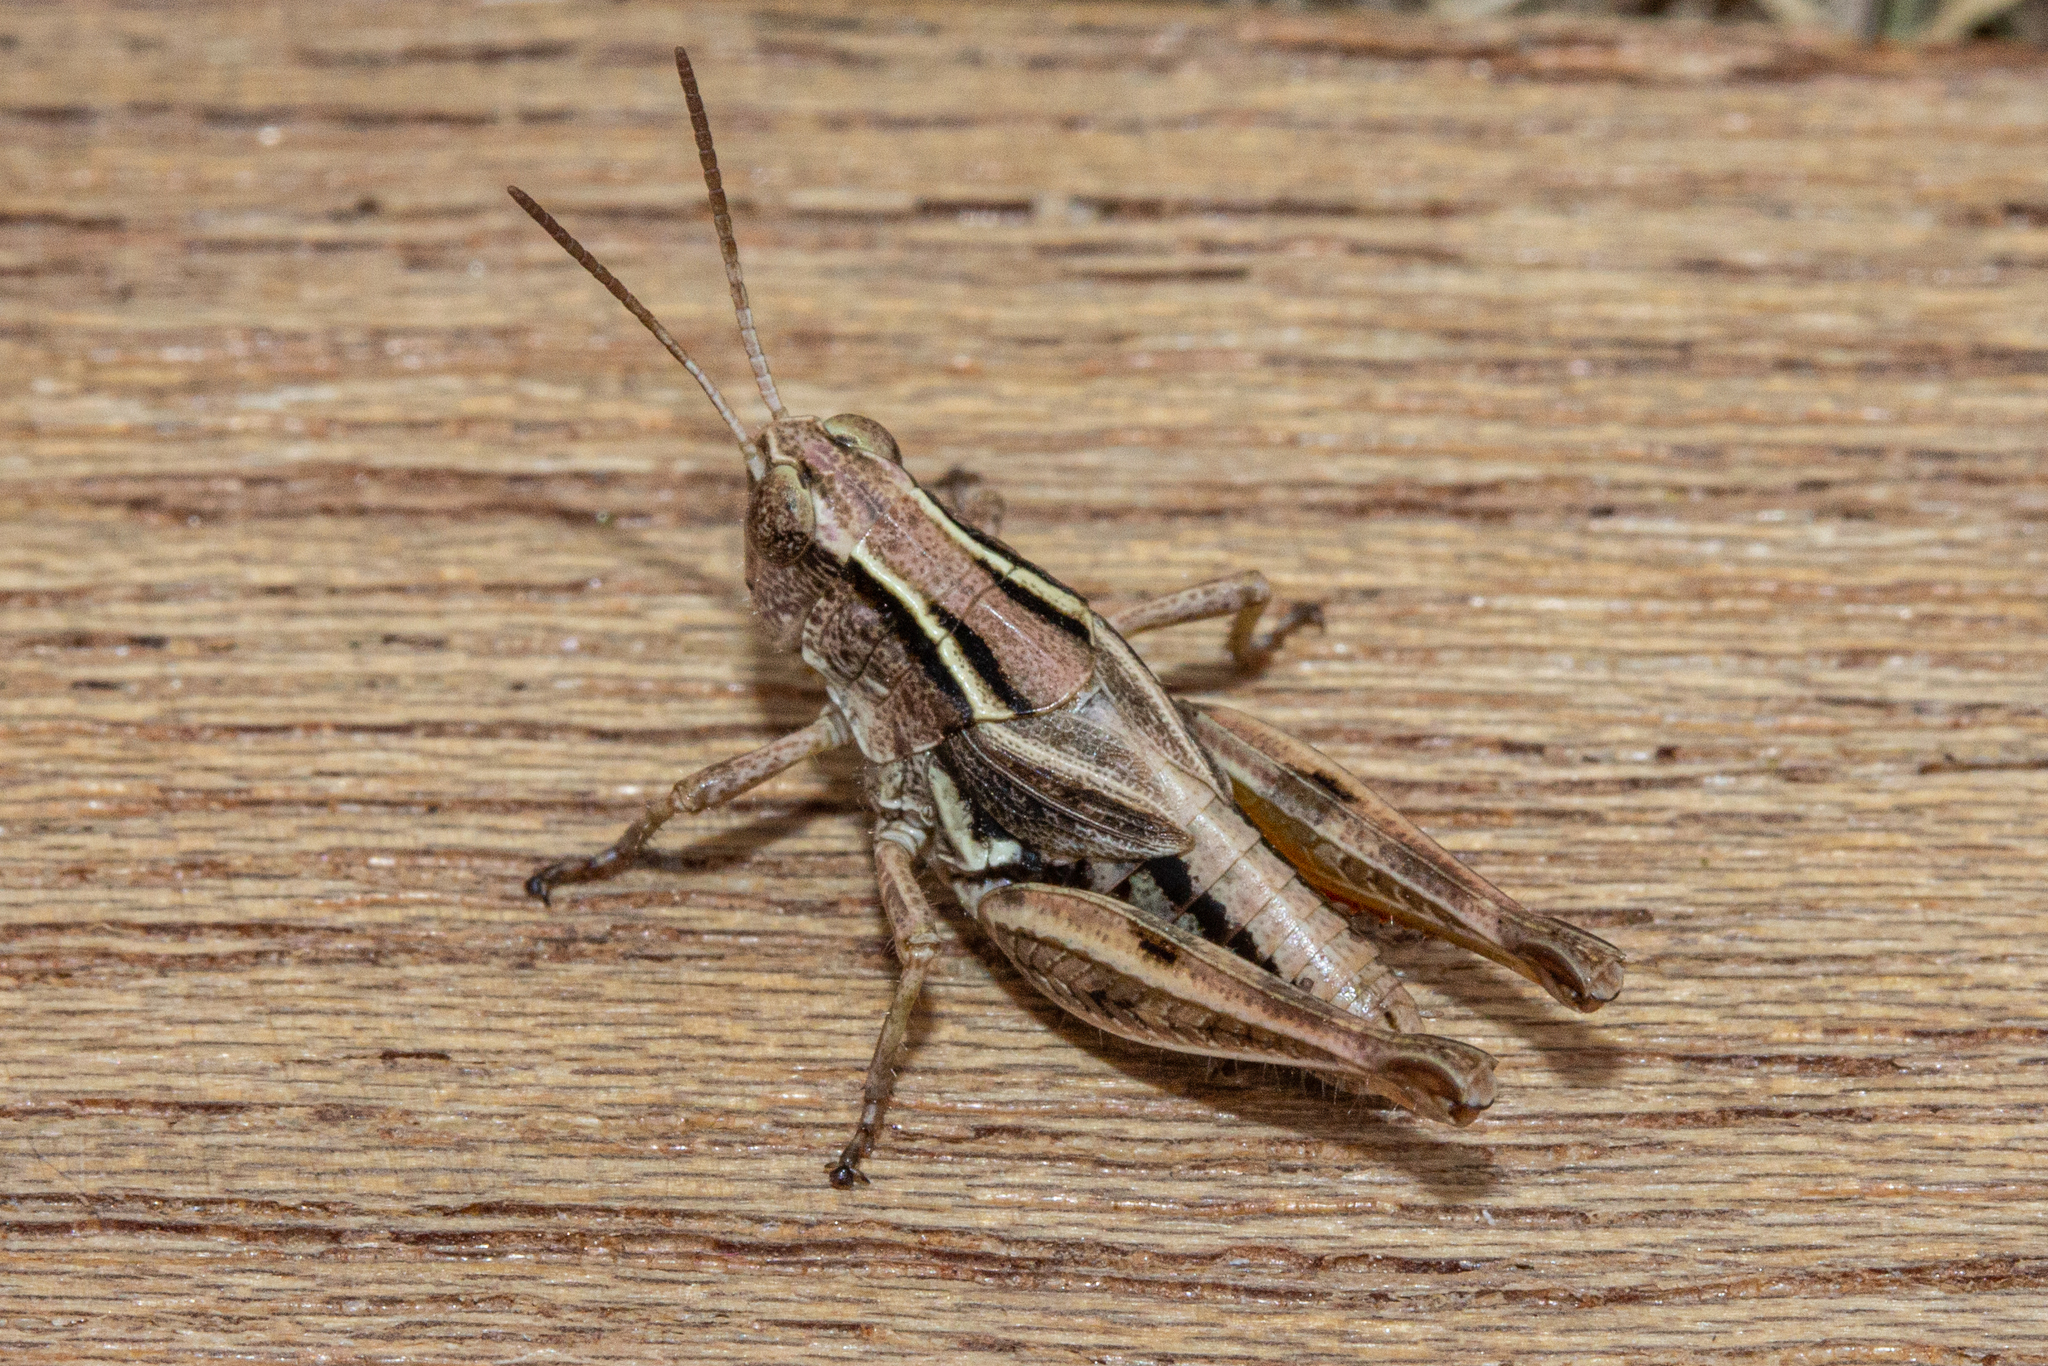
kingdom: Animalia
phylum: Arthropoda
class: Insecta
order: Orthoptera
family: Acrididae
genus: Phaulacridium
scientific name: Phaulacridium marginale
